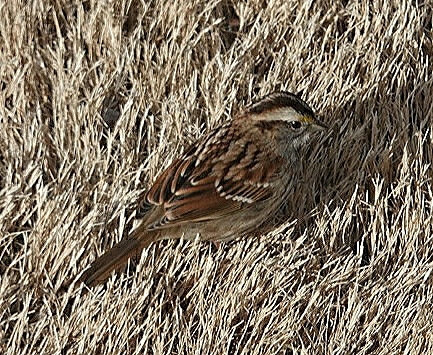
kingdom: Animalia
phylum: Chordata
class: Aves
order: Passeriformes
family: Passerellidae
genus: Zonotrichia
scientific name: Zonotrichia albicollis
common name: White-throated sparrow
